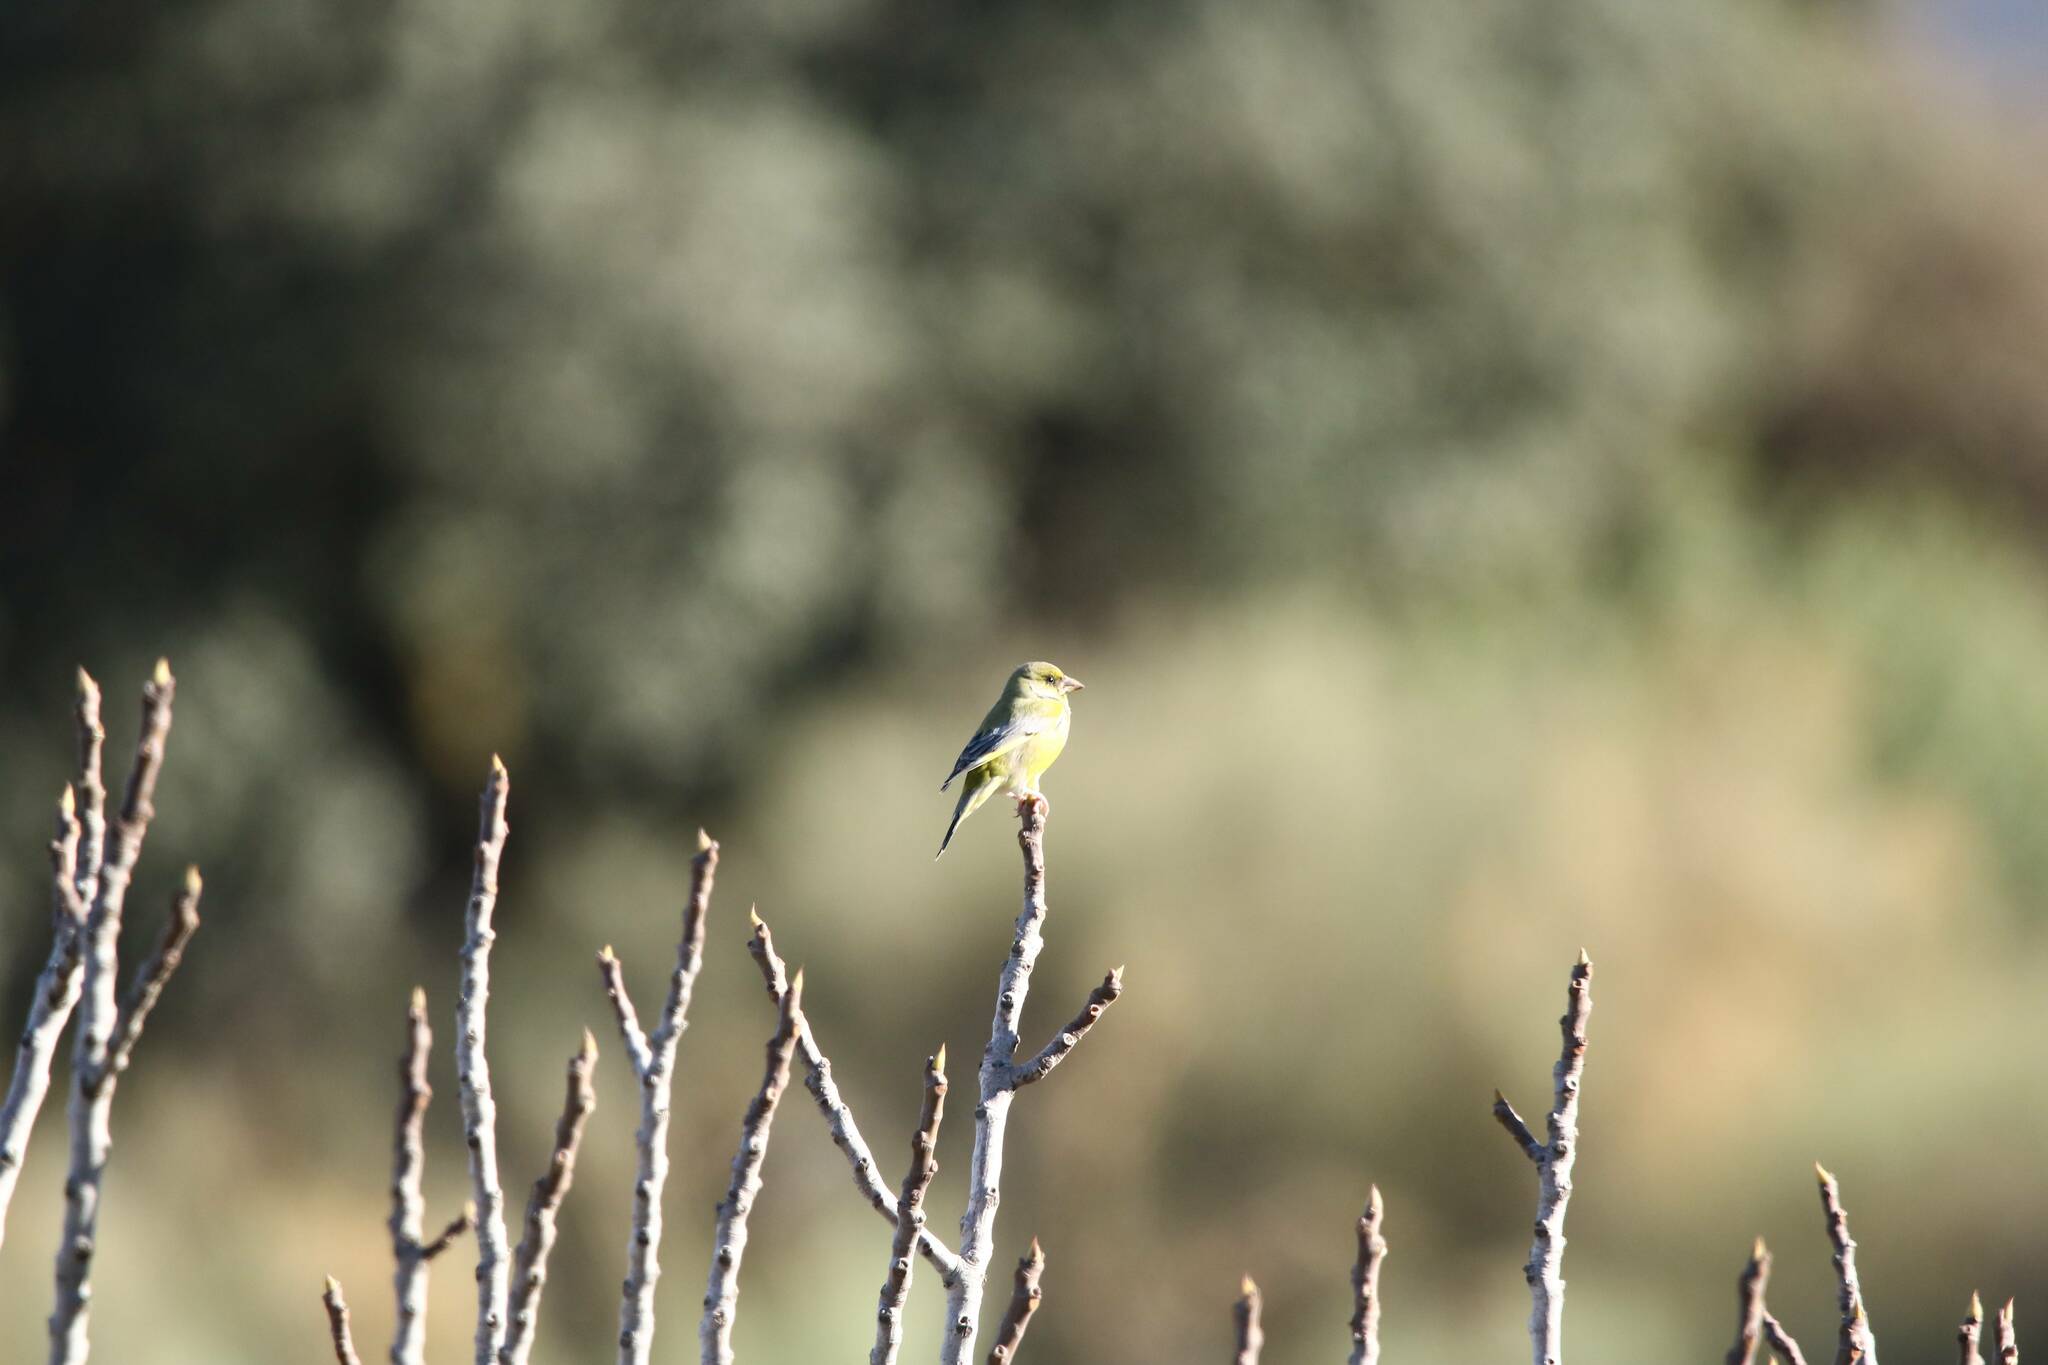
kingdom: Plantae
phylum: Tracheophyta
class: Liliopsida
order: Poales
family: Poaceae
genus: Chloris
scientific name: Chloris chloris
